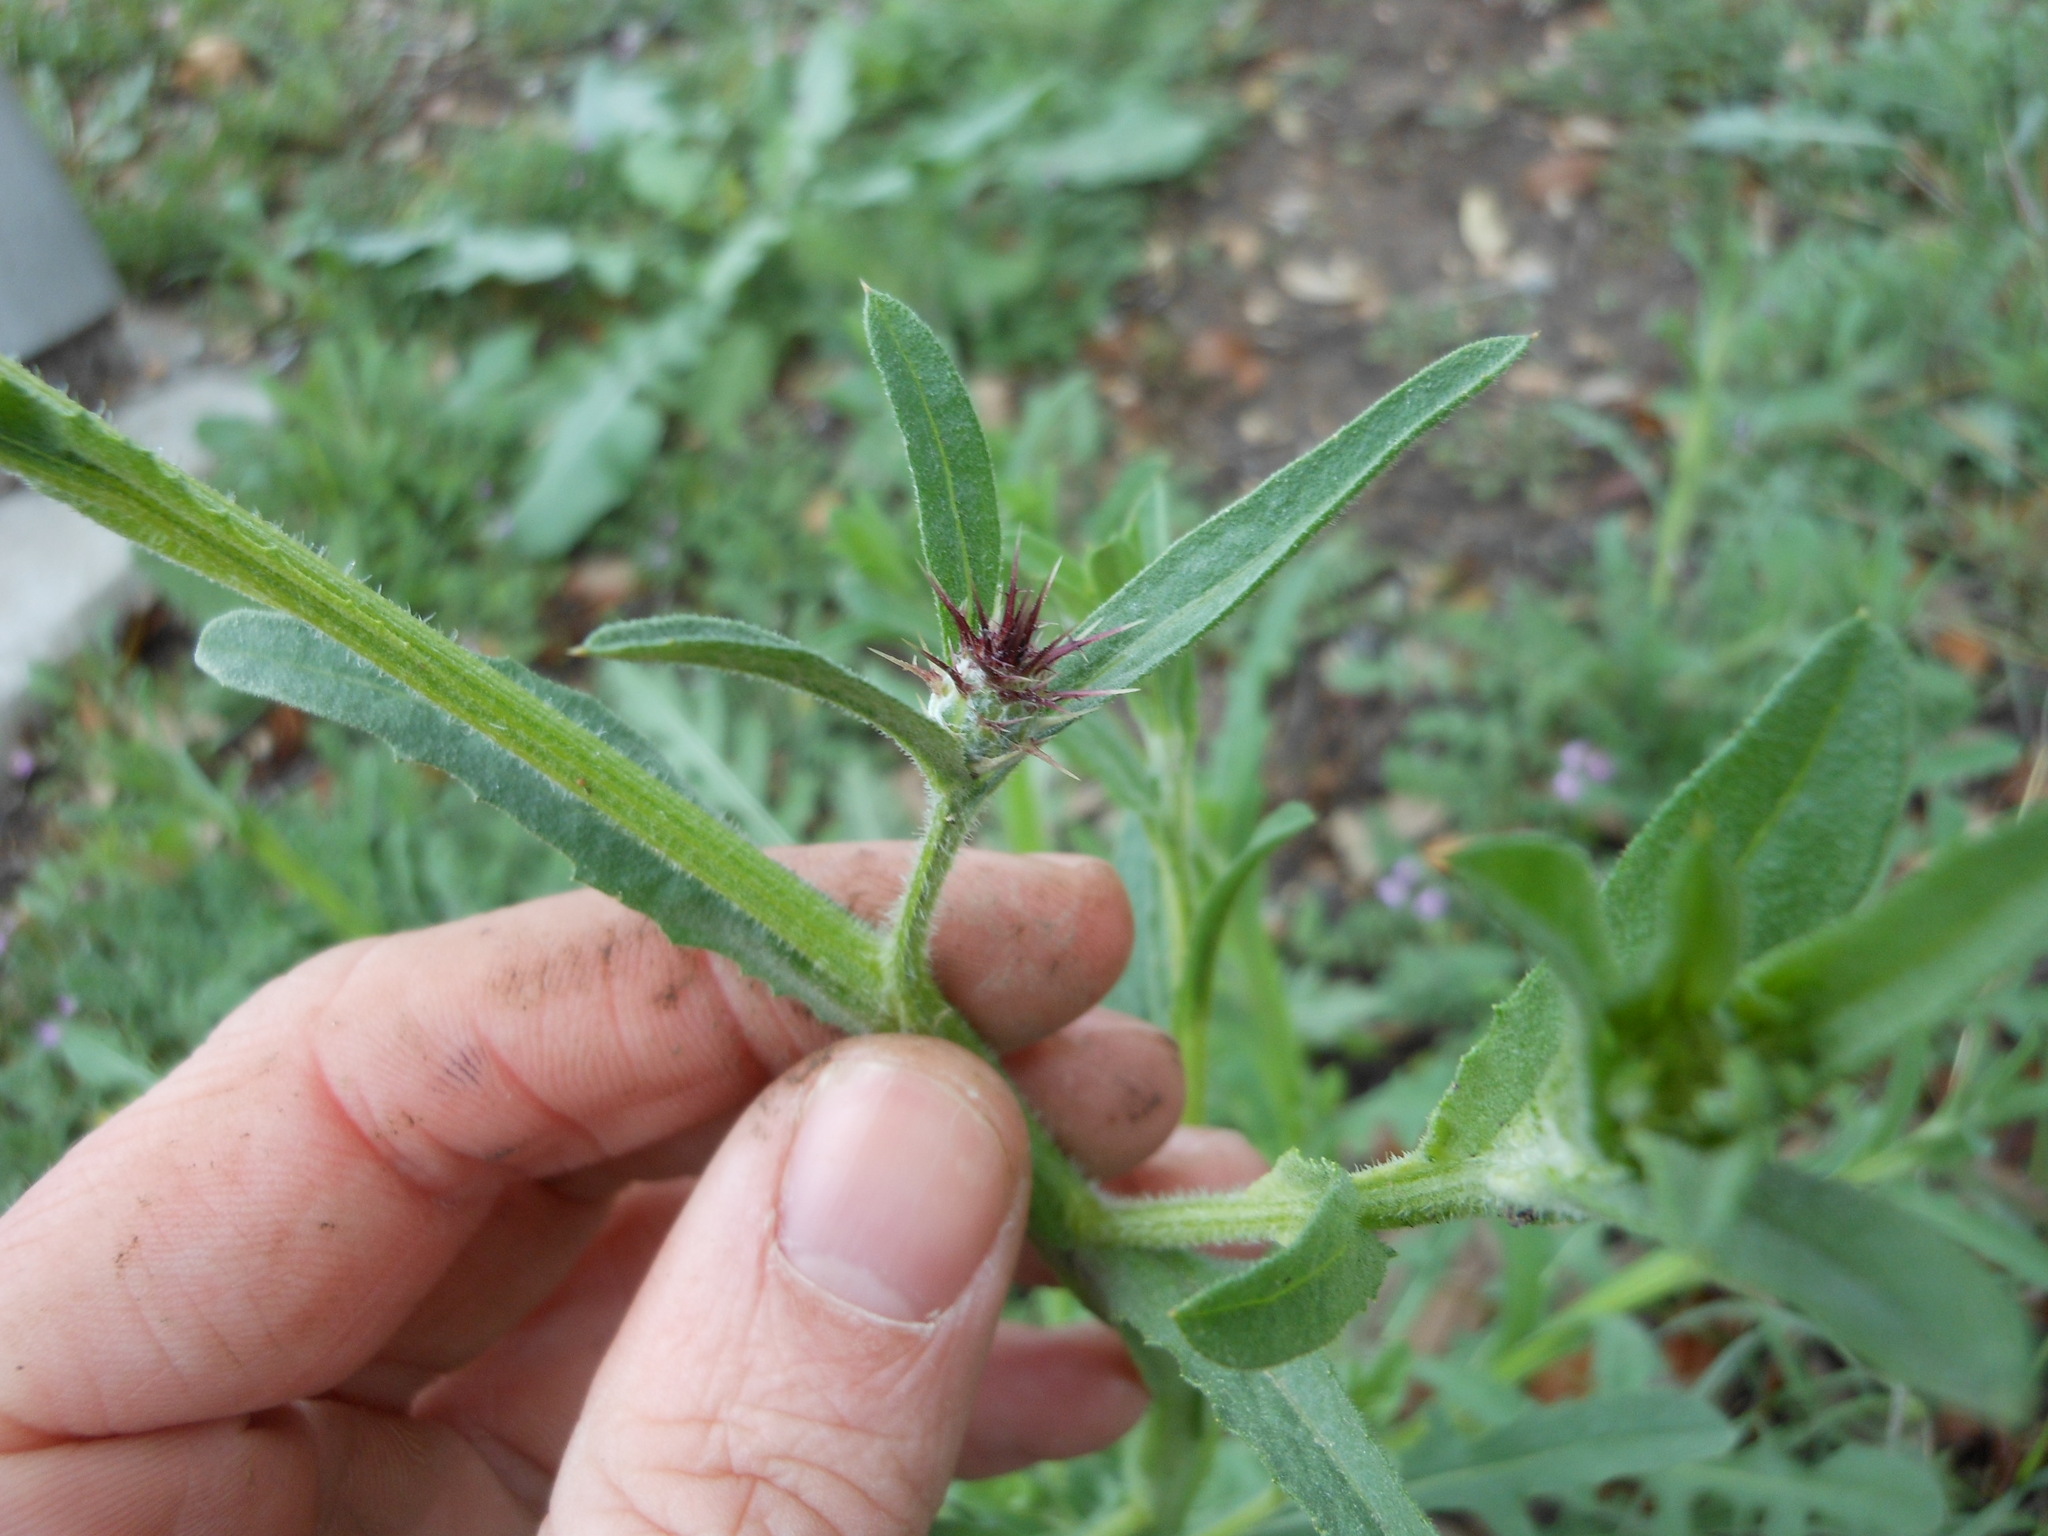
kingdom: Plantae
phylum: Tracheophyta
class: Magnoliopsida
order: Asterales
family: Asteraceae
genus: Centaurea
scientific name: Centaurea melitensis
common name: Maltese star-thistle
